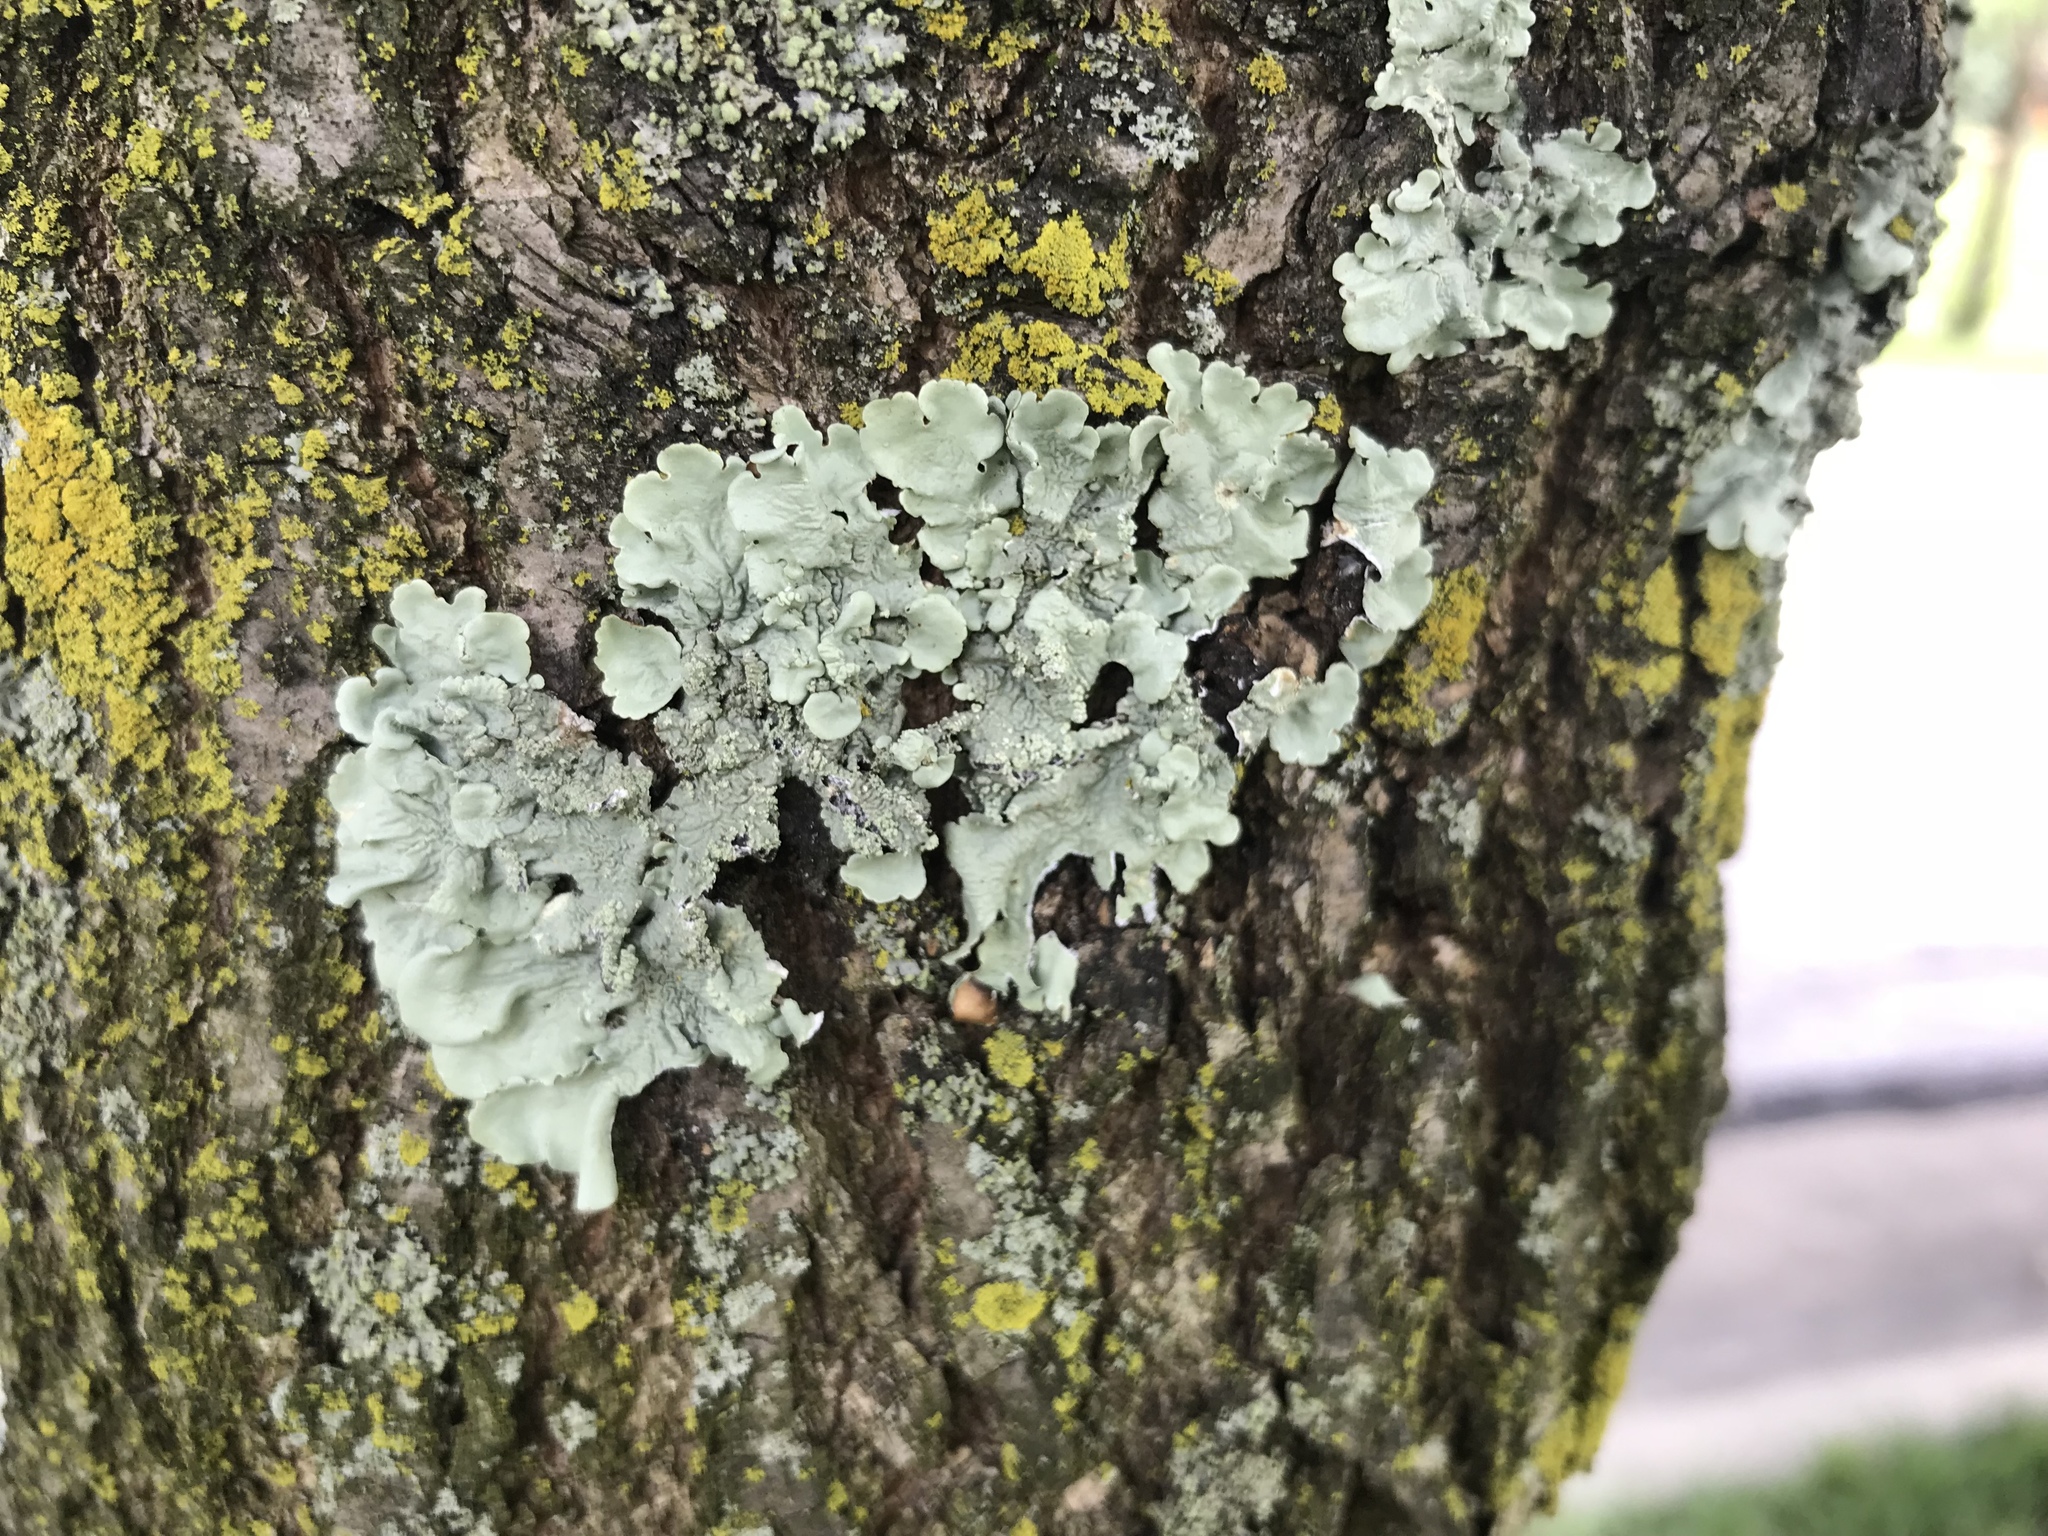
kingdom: Fungi
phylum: Ascomycota
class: Lecanoromycetes
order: Lecanorales
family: Parmeliaceae
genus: Flavoparmelia
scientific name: Flavoparmelia caperata
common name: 40-mile per hour lichen
